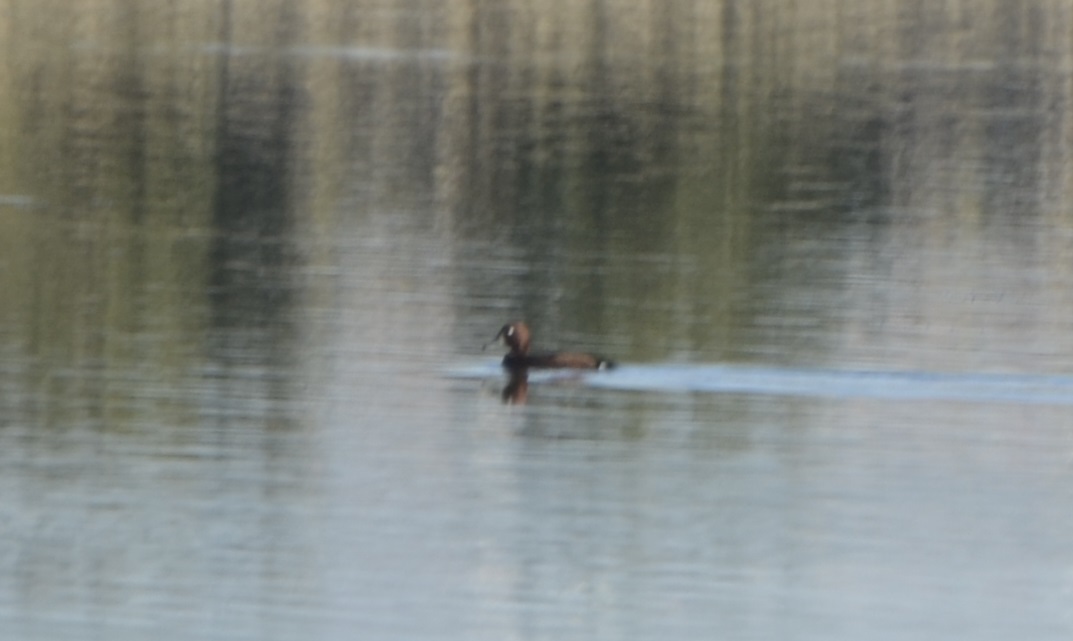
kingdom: Animalia
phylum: Chordata
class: Aves
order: Anseriformes
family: Anatidae
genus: Aythya
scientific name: Aythya nyroca
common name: Ferruginous duck
